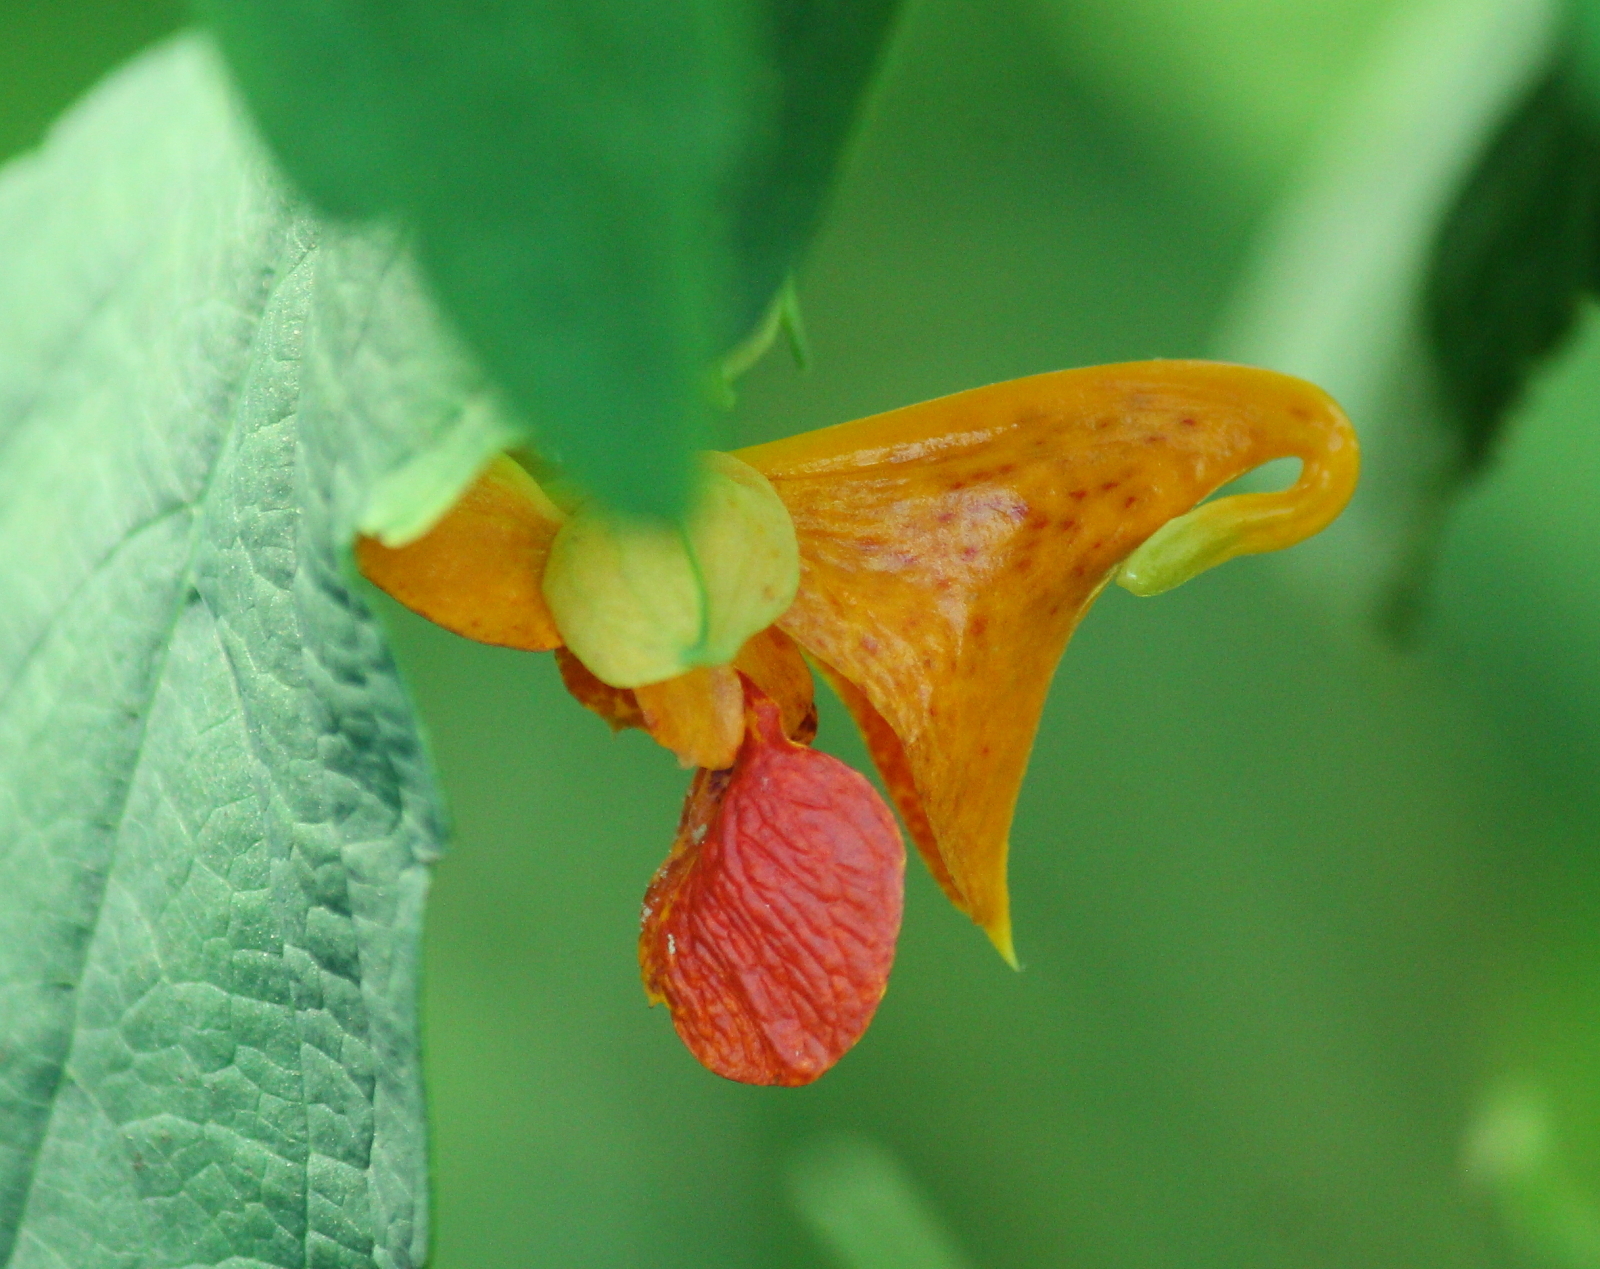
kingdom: Plantae
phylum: Tracheophyta
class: Magnoliopsida
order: Ericales
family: Balsaminaceae
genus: Impatiens
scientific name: Impatiens capensis
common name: Orange balsam
